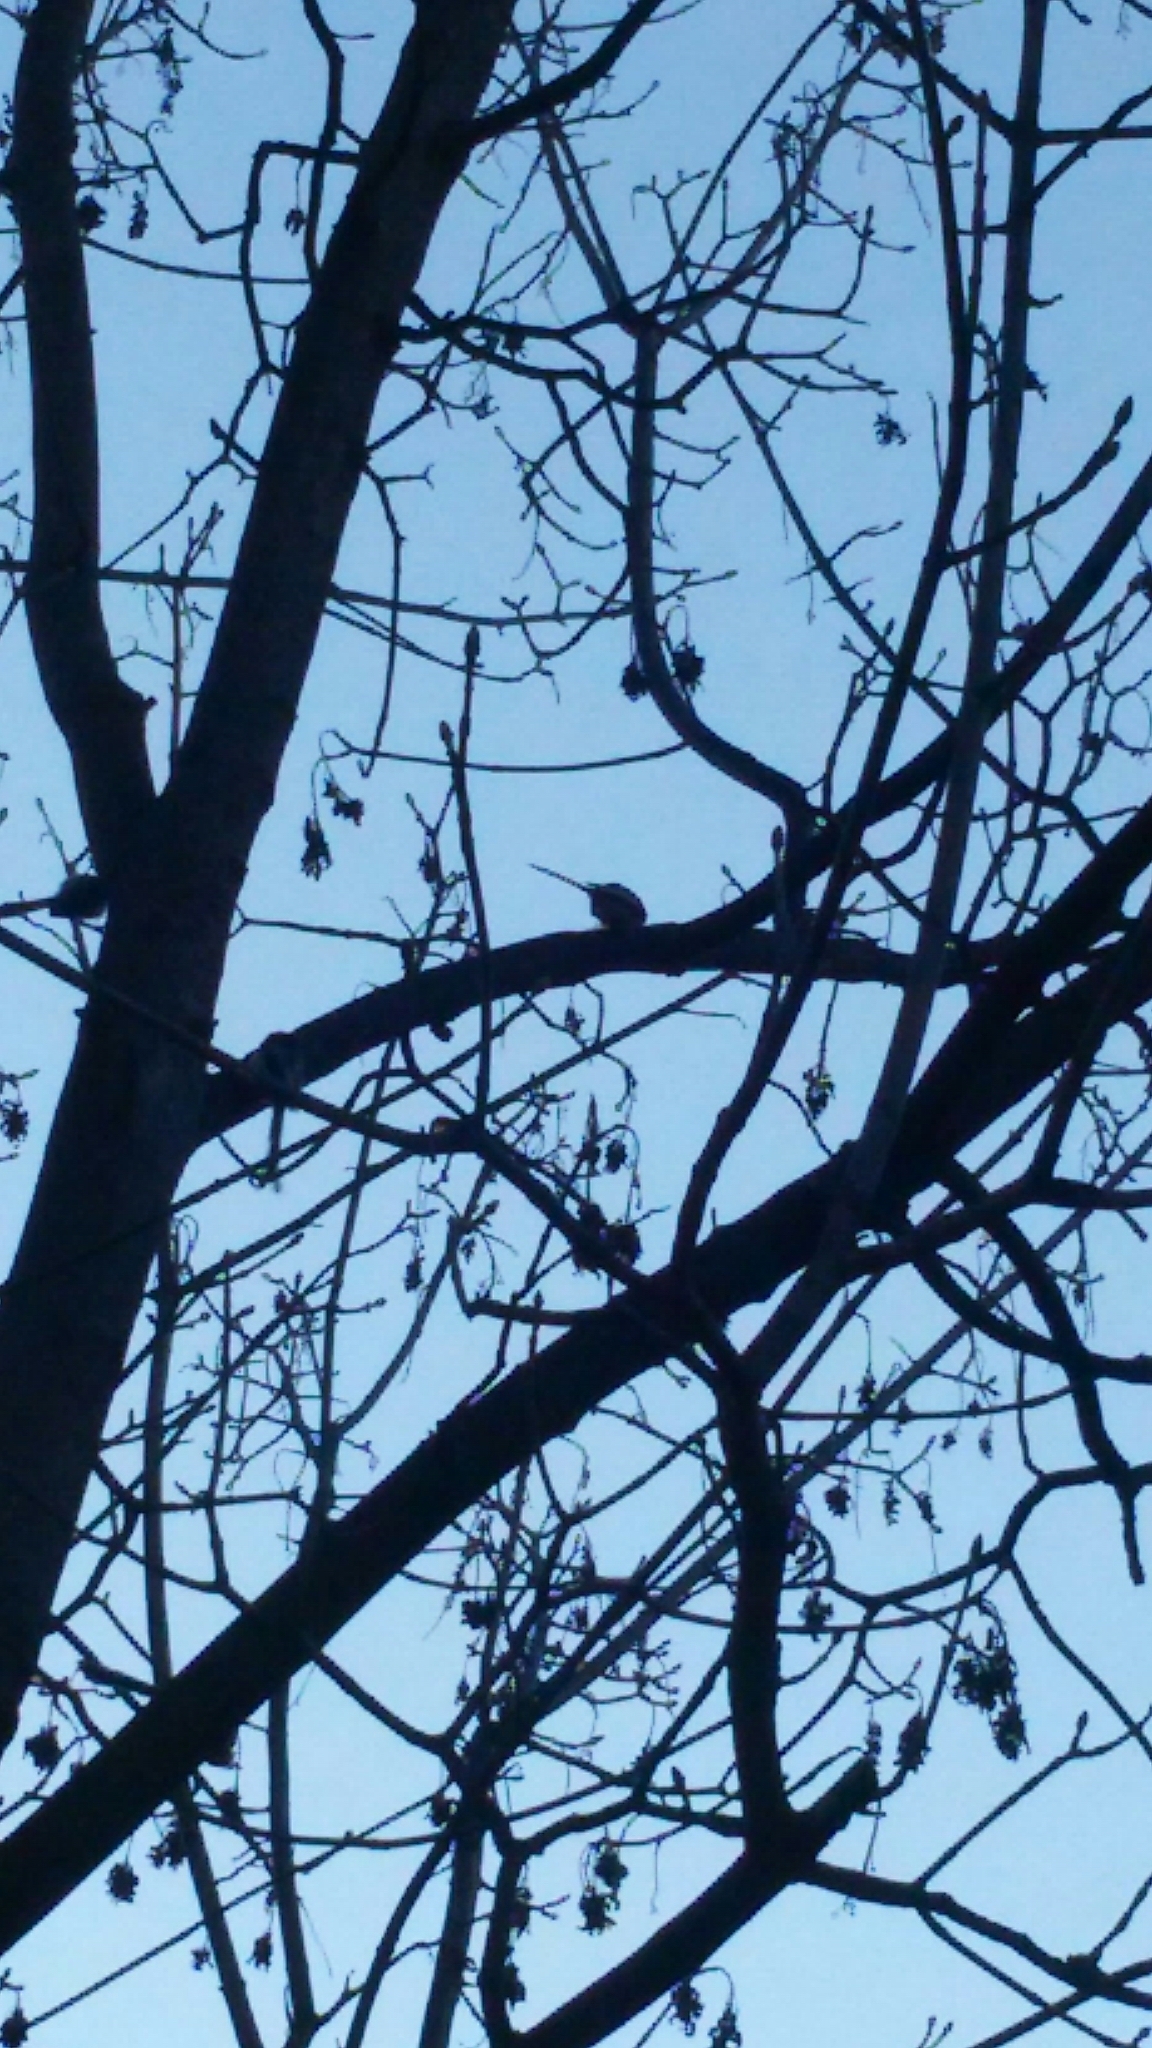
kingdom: Animalia
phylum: Chordata
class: Aves
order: Passeriformes
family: Aegithalidae
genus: Aegithalos
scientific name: Aegithalos caudatus
